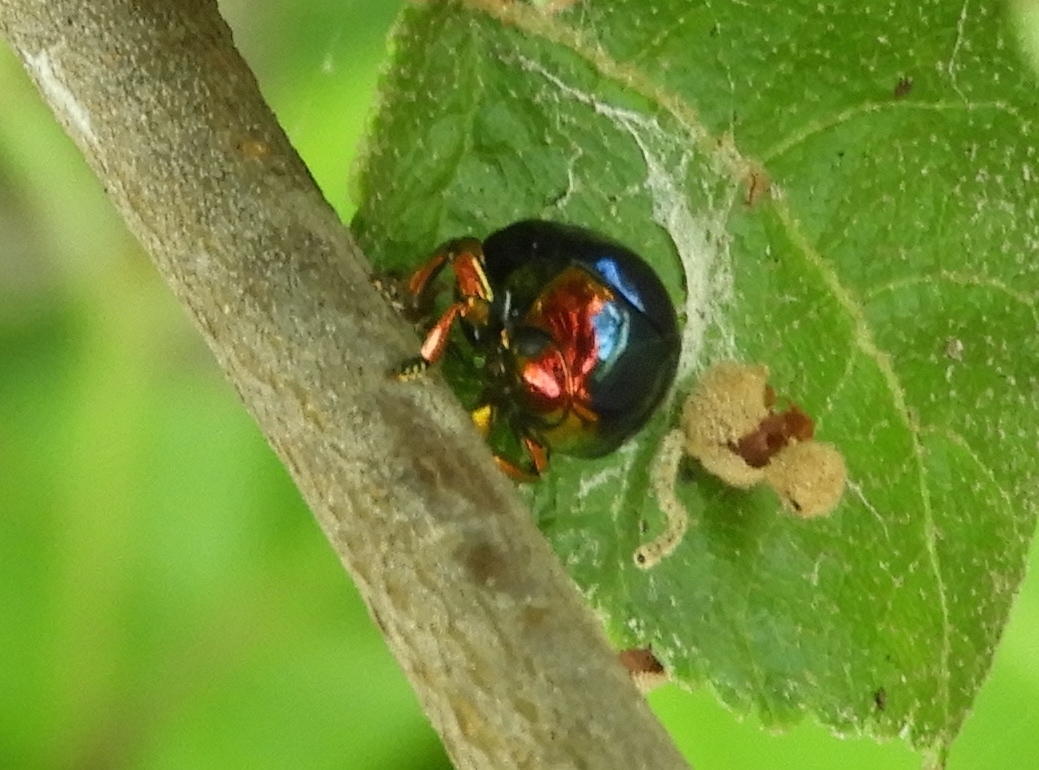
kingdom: Animalia
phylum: Arthropoda
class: Insecta
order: Coleoptera
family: Chrysomelidae
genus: Lamprosoma
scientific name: Lamprosoma
